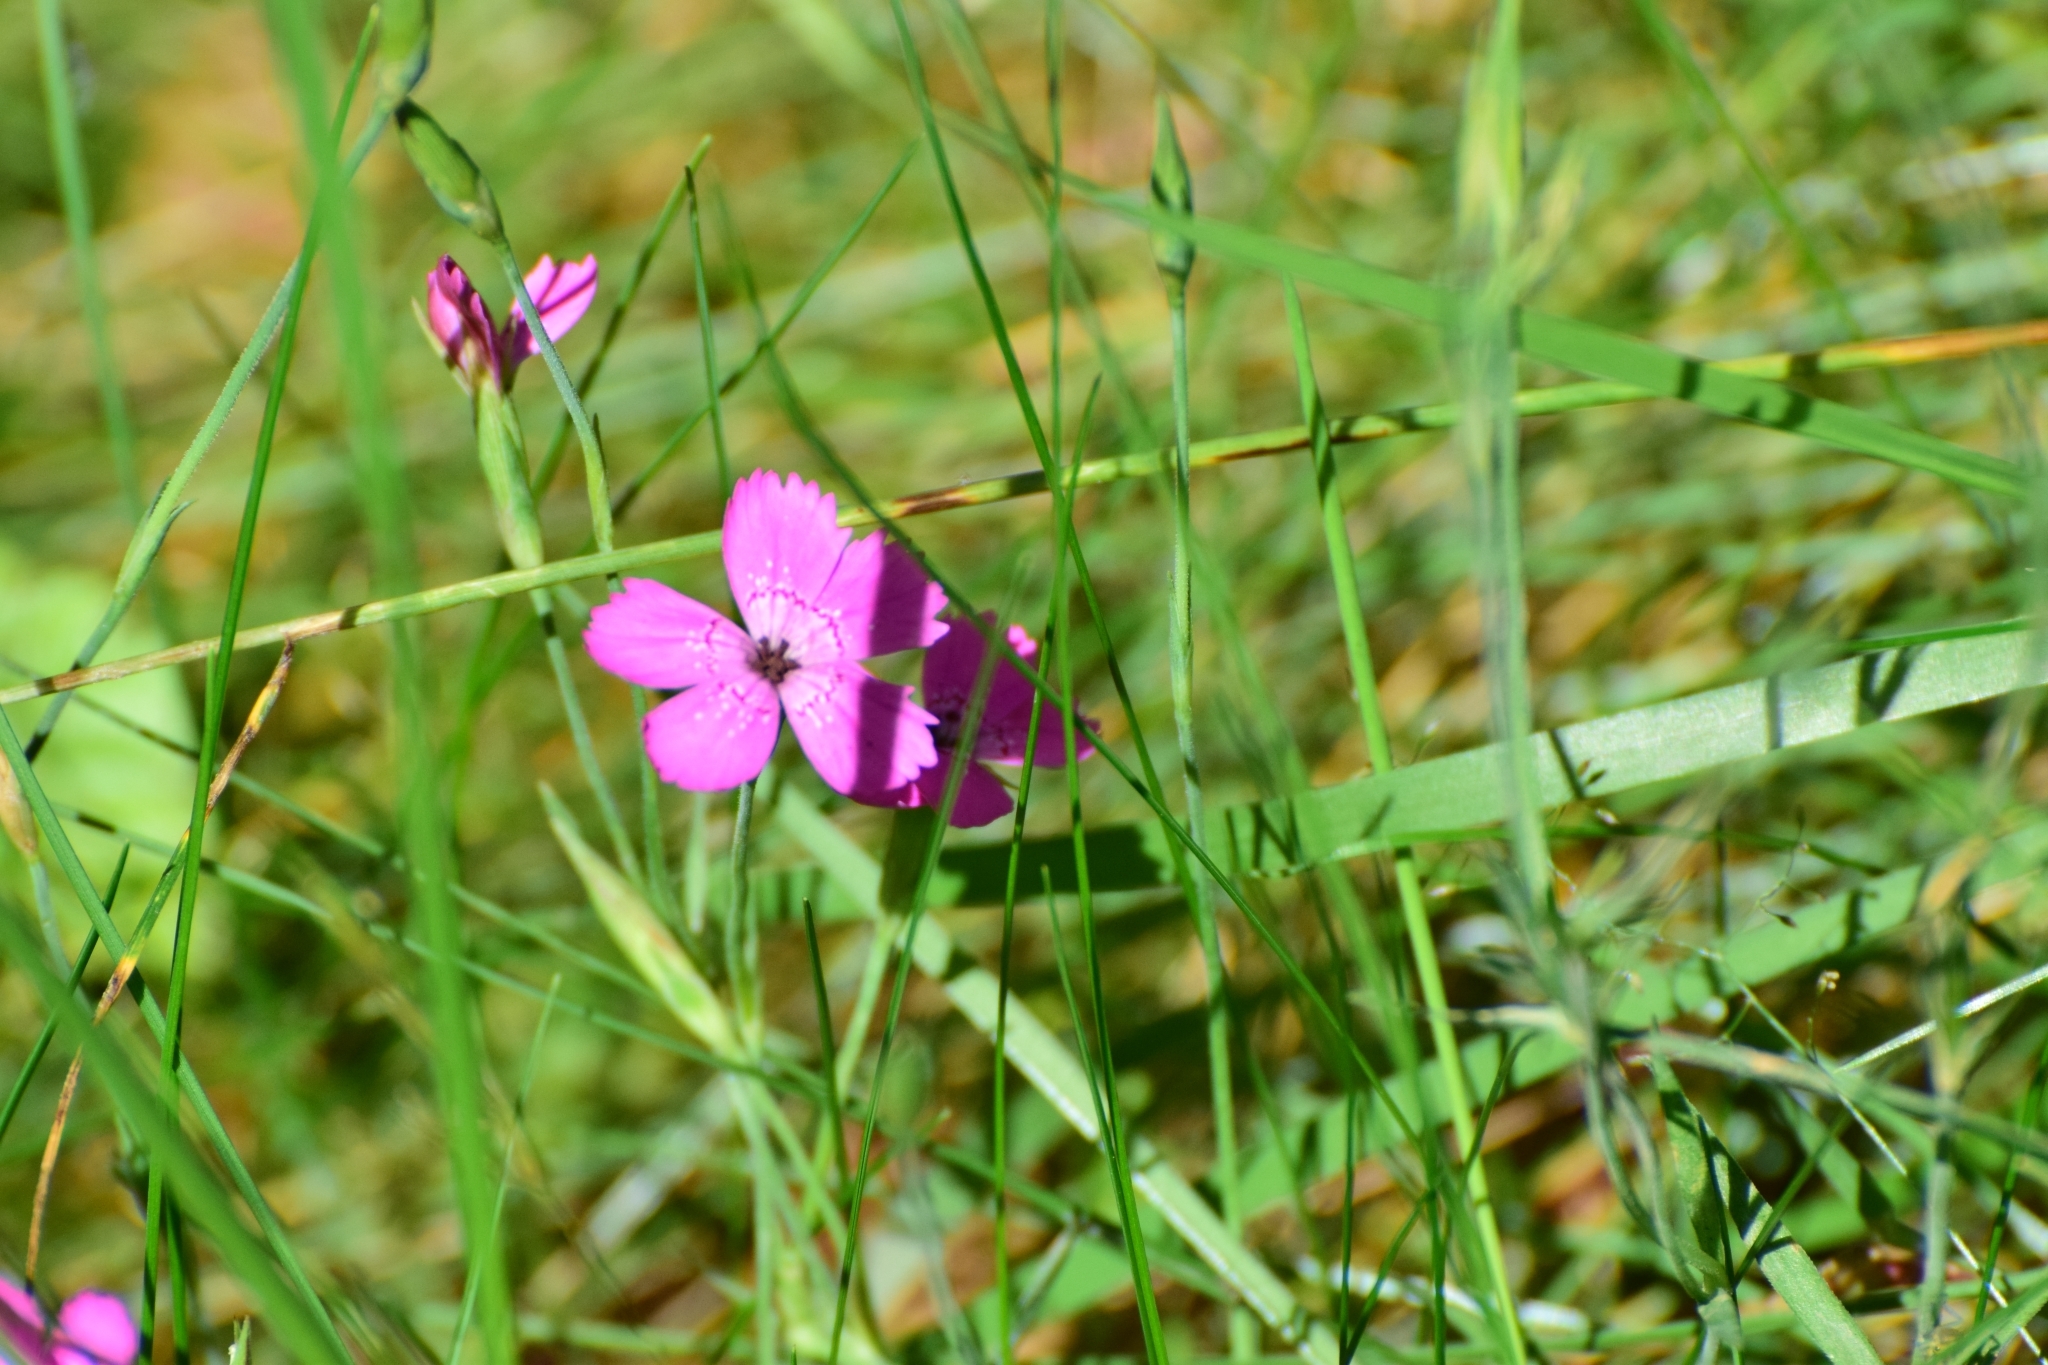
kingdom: Plantae
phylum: Tracheophyta
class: Magnoliopsida
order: Caryophyllales
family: Caryophyllaceae
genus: Dianthus
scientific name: Dianthus deltoides
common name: Maiden pink
